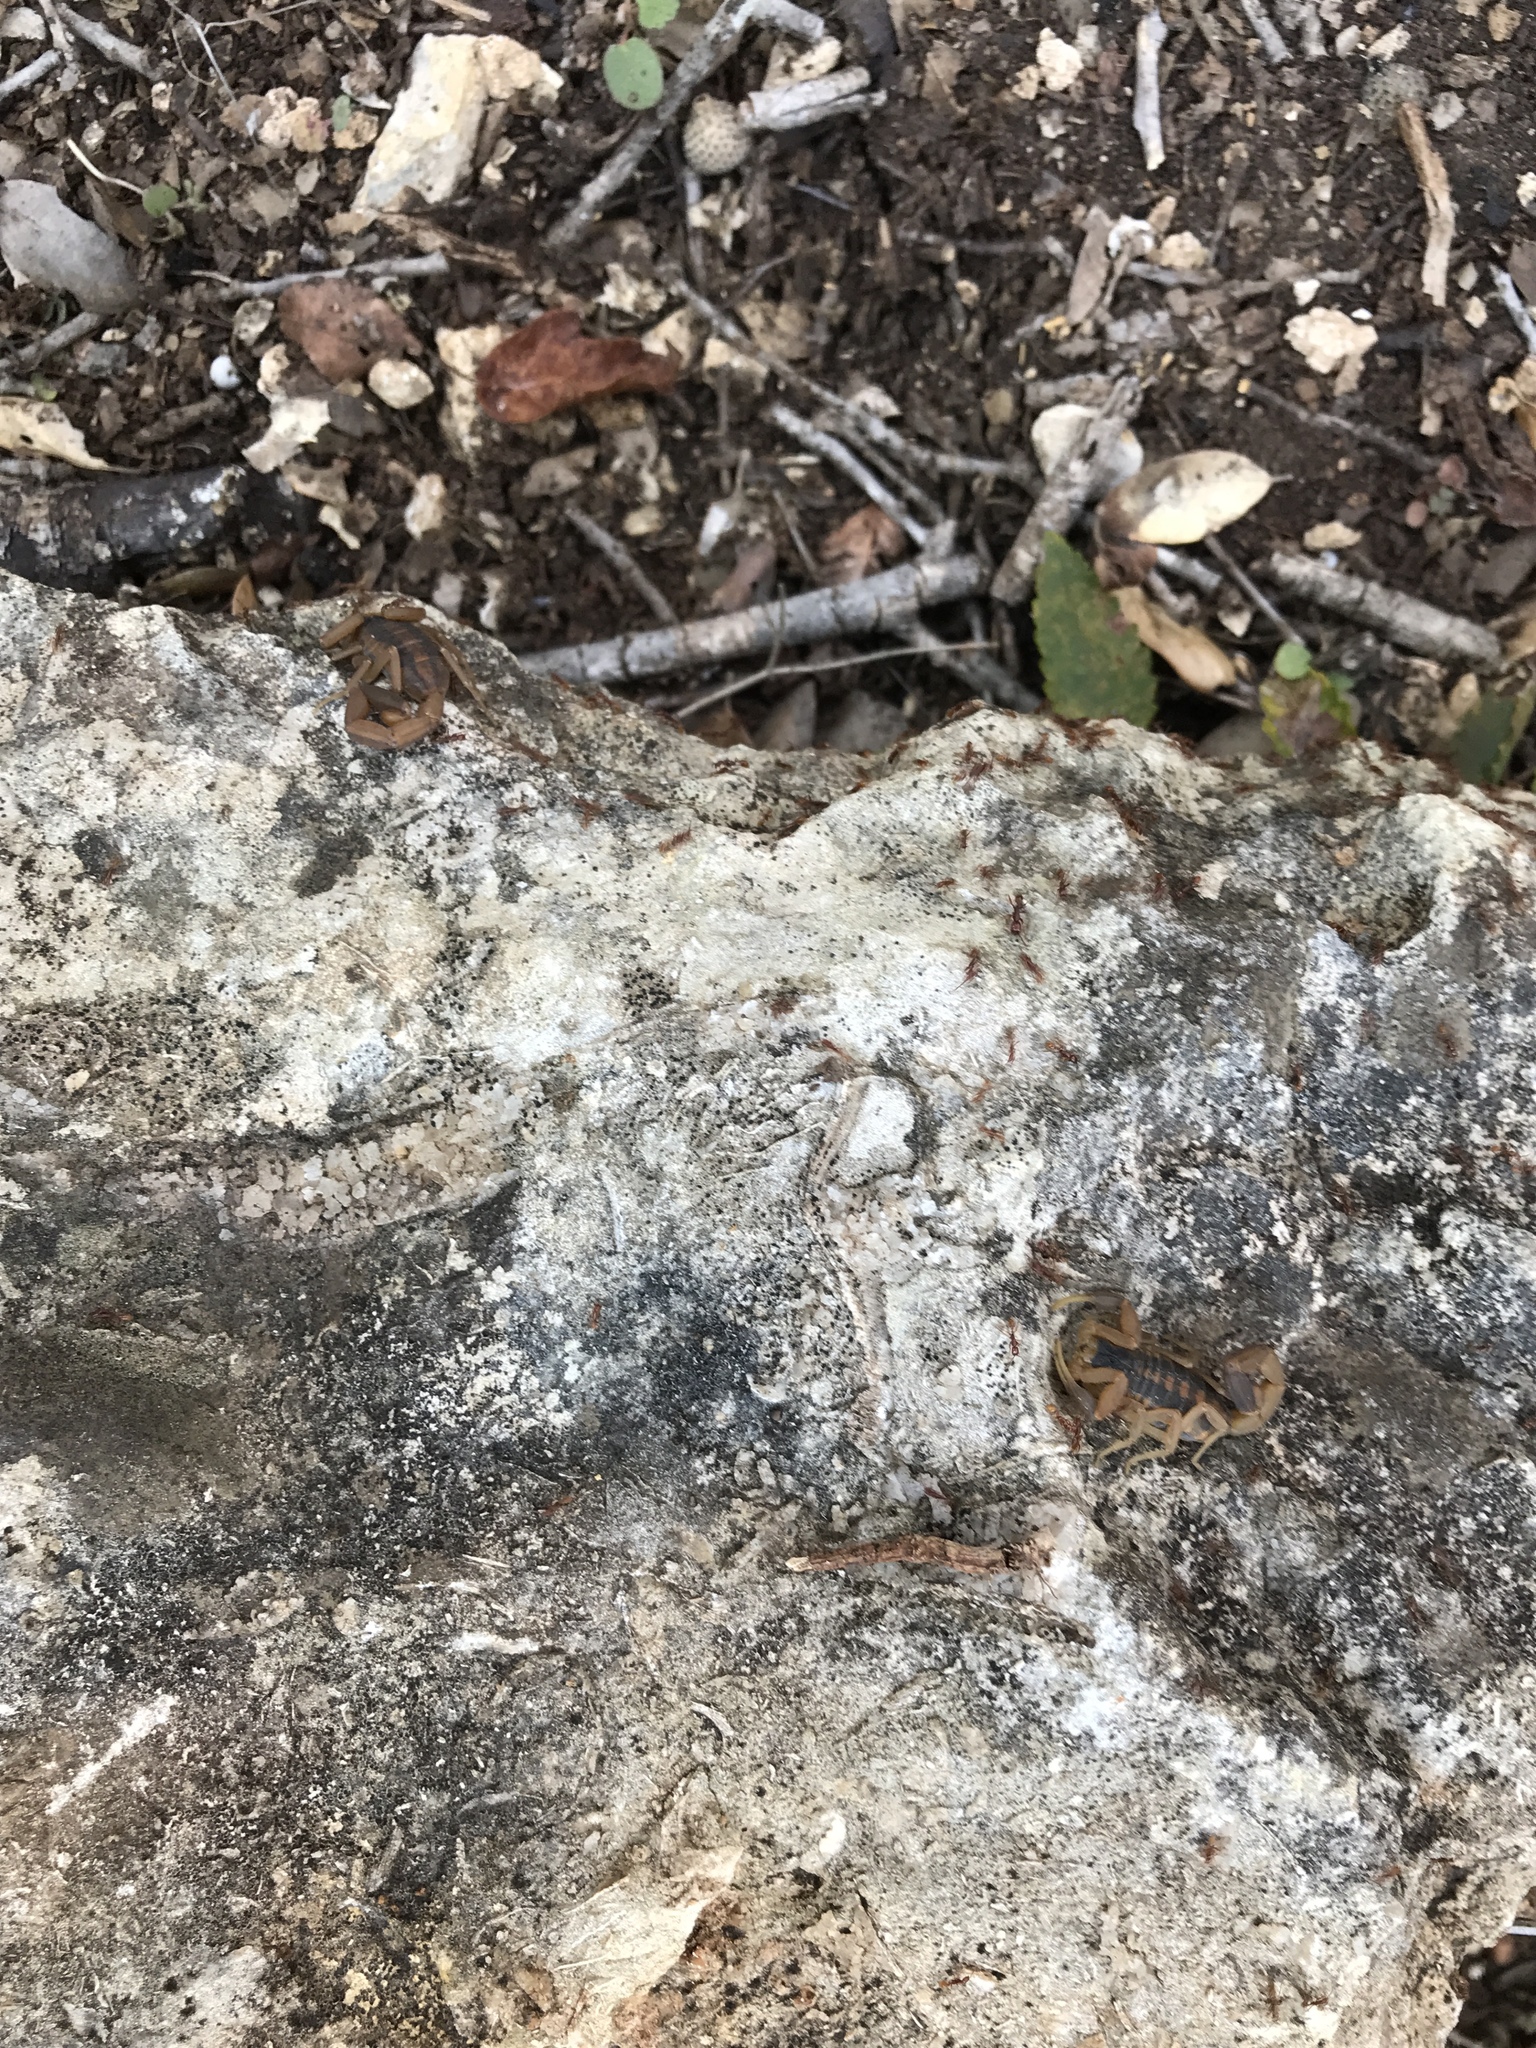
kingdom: Animalia
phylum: Arthropoda
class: Arachnida
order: Scorpiones
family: Buthidae
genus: Centruroides
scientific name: Centruroides vittatus
